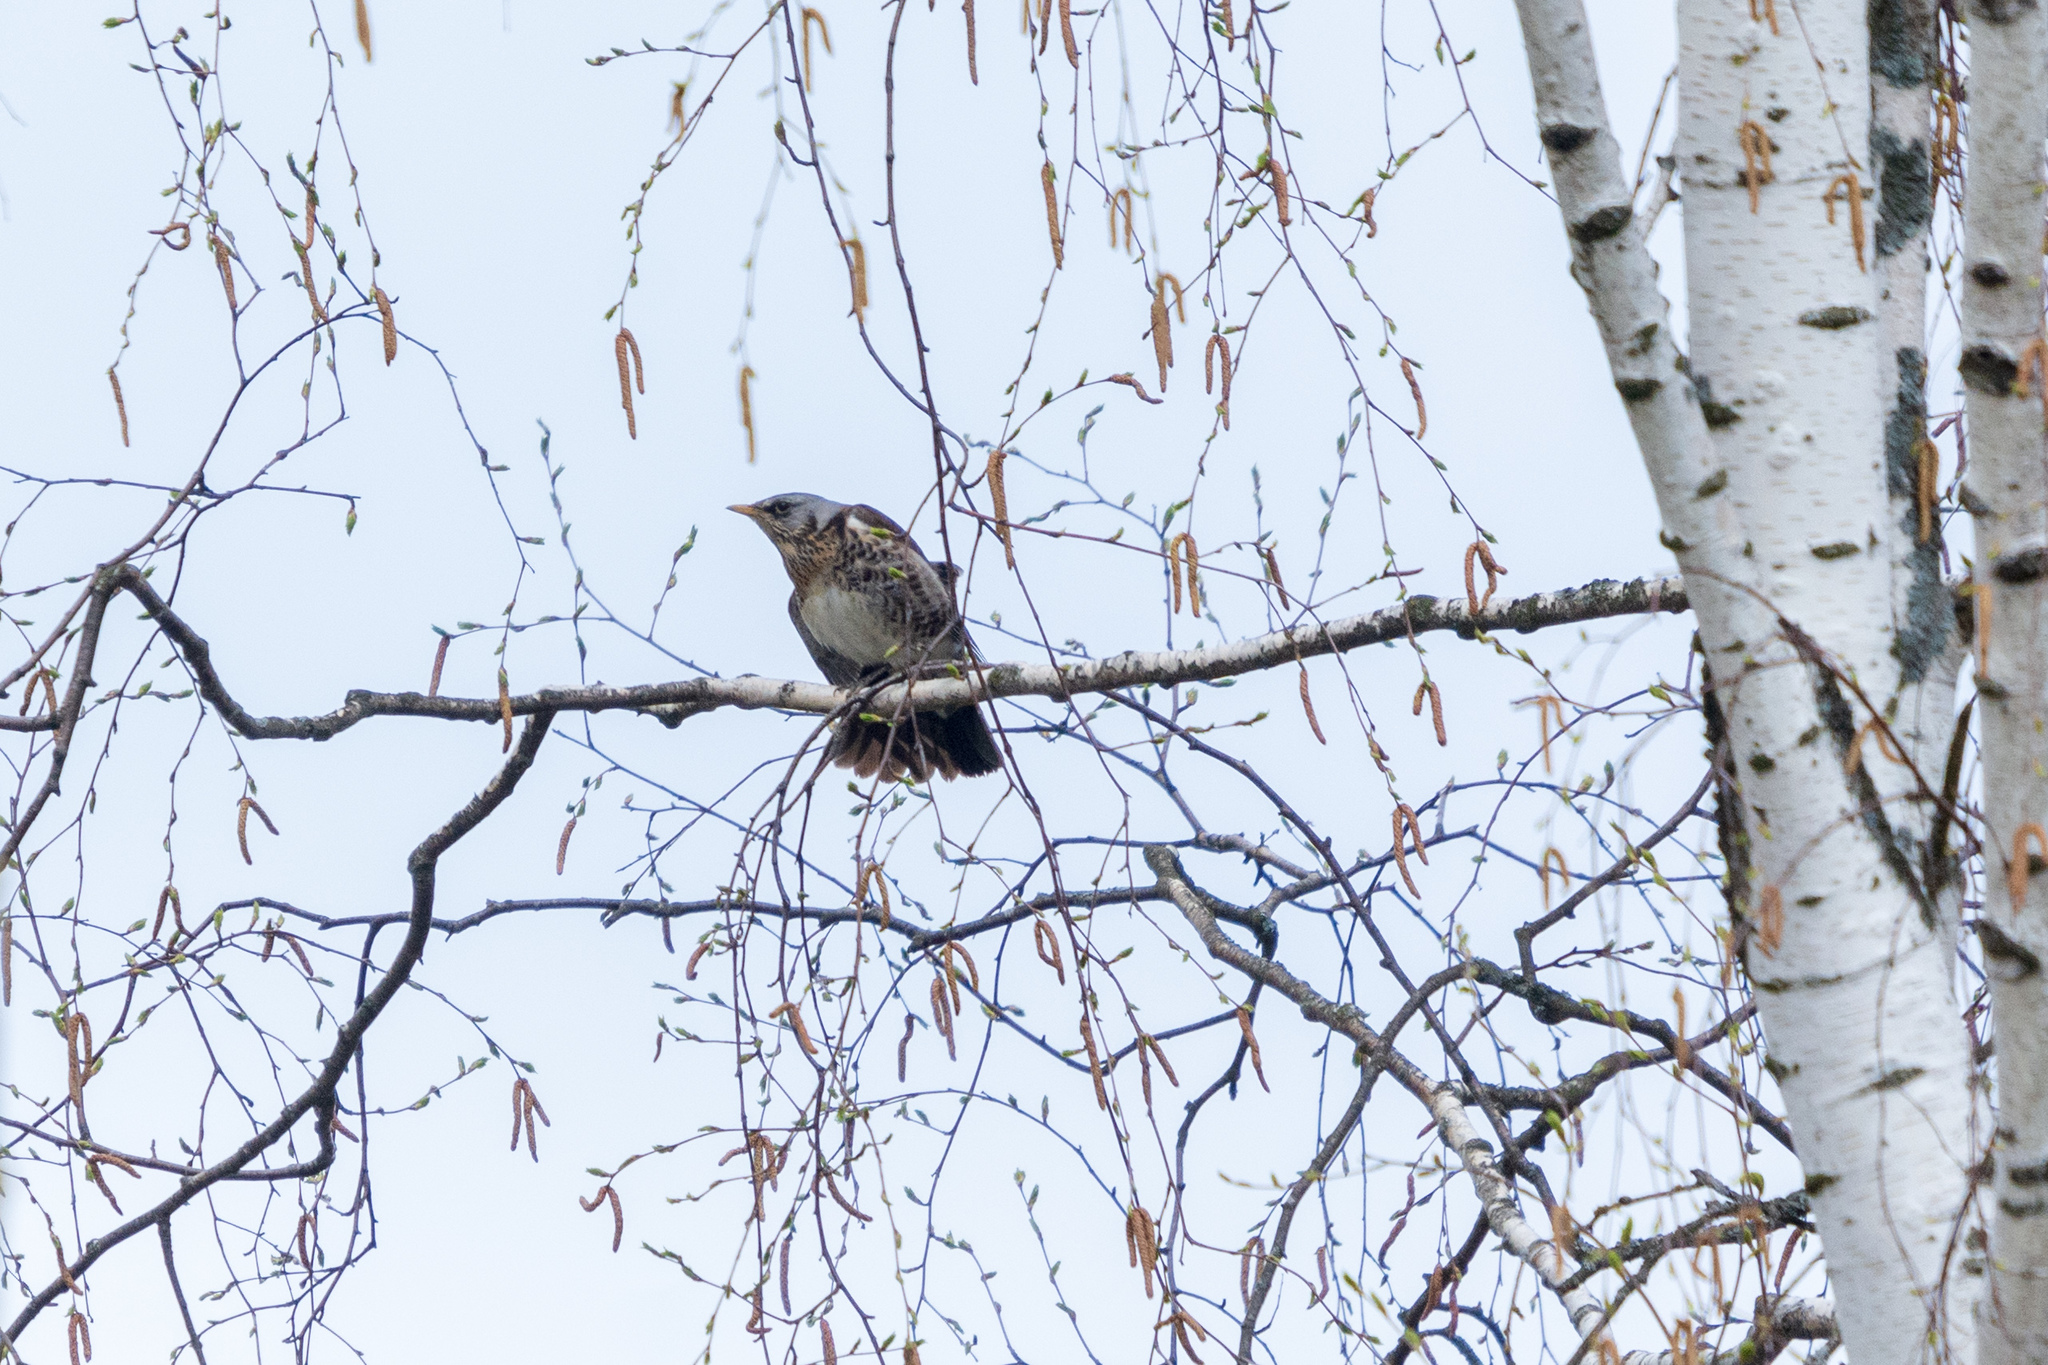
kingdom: Animalia
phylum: Chordata
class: Aves
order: Passeriformes
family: Turdidae
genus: Turdus
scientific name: Turdus pilaris
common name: Fieldfare
